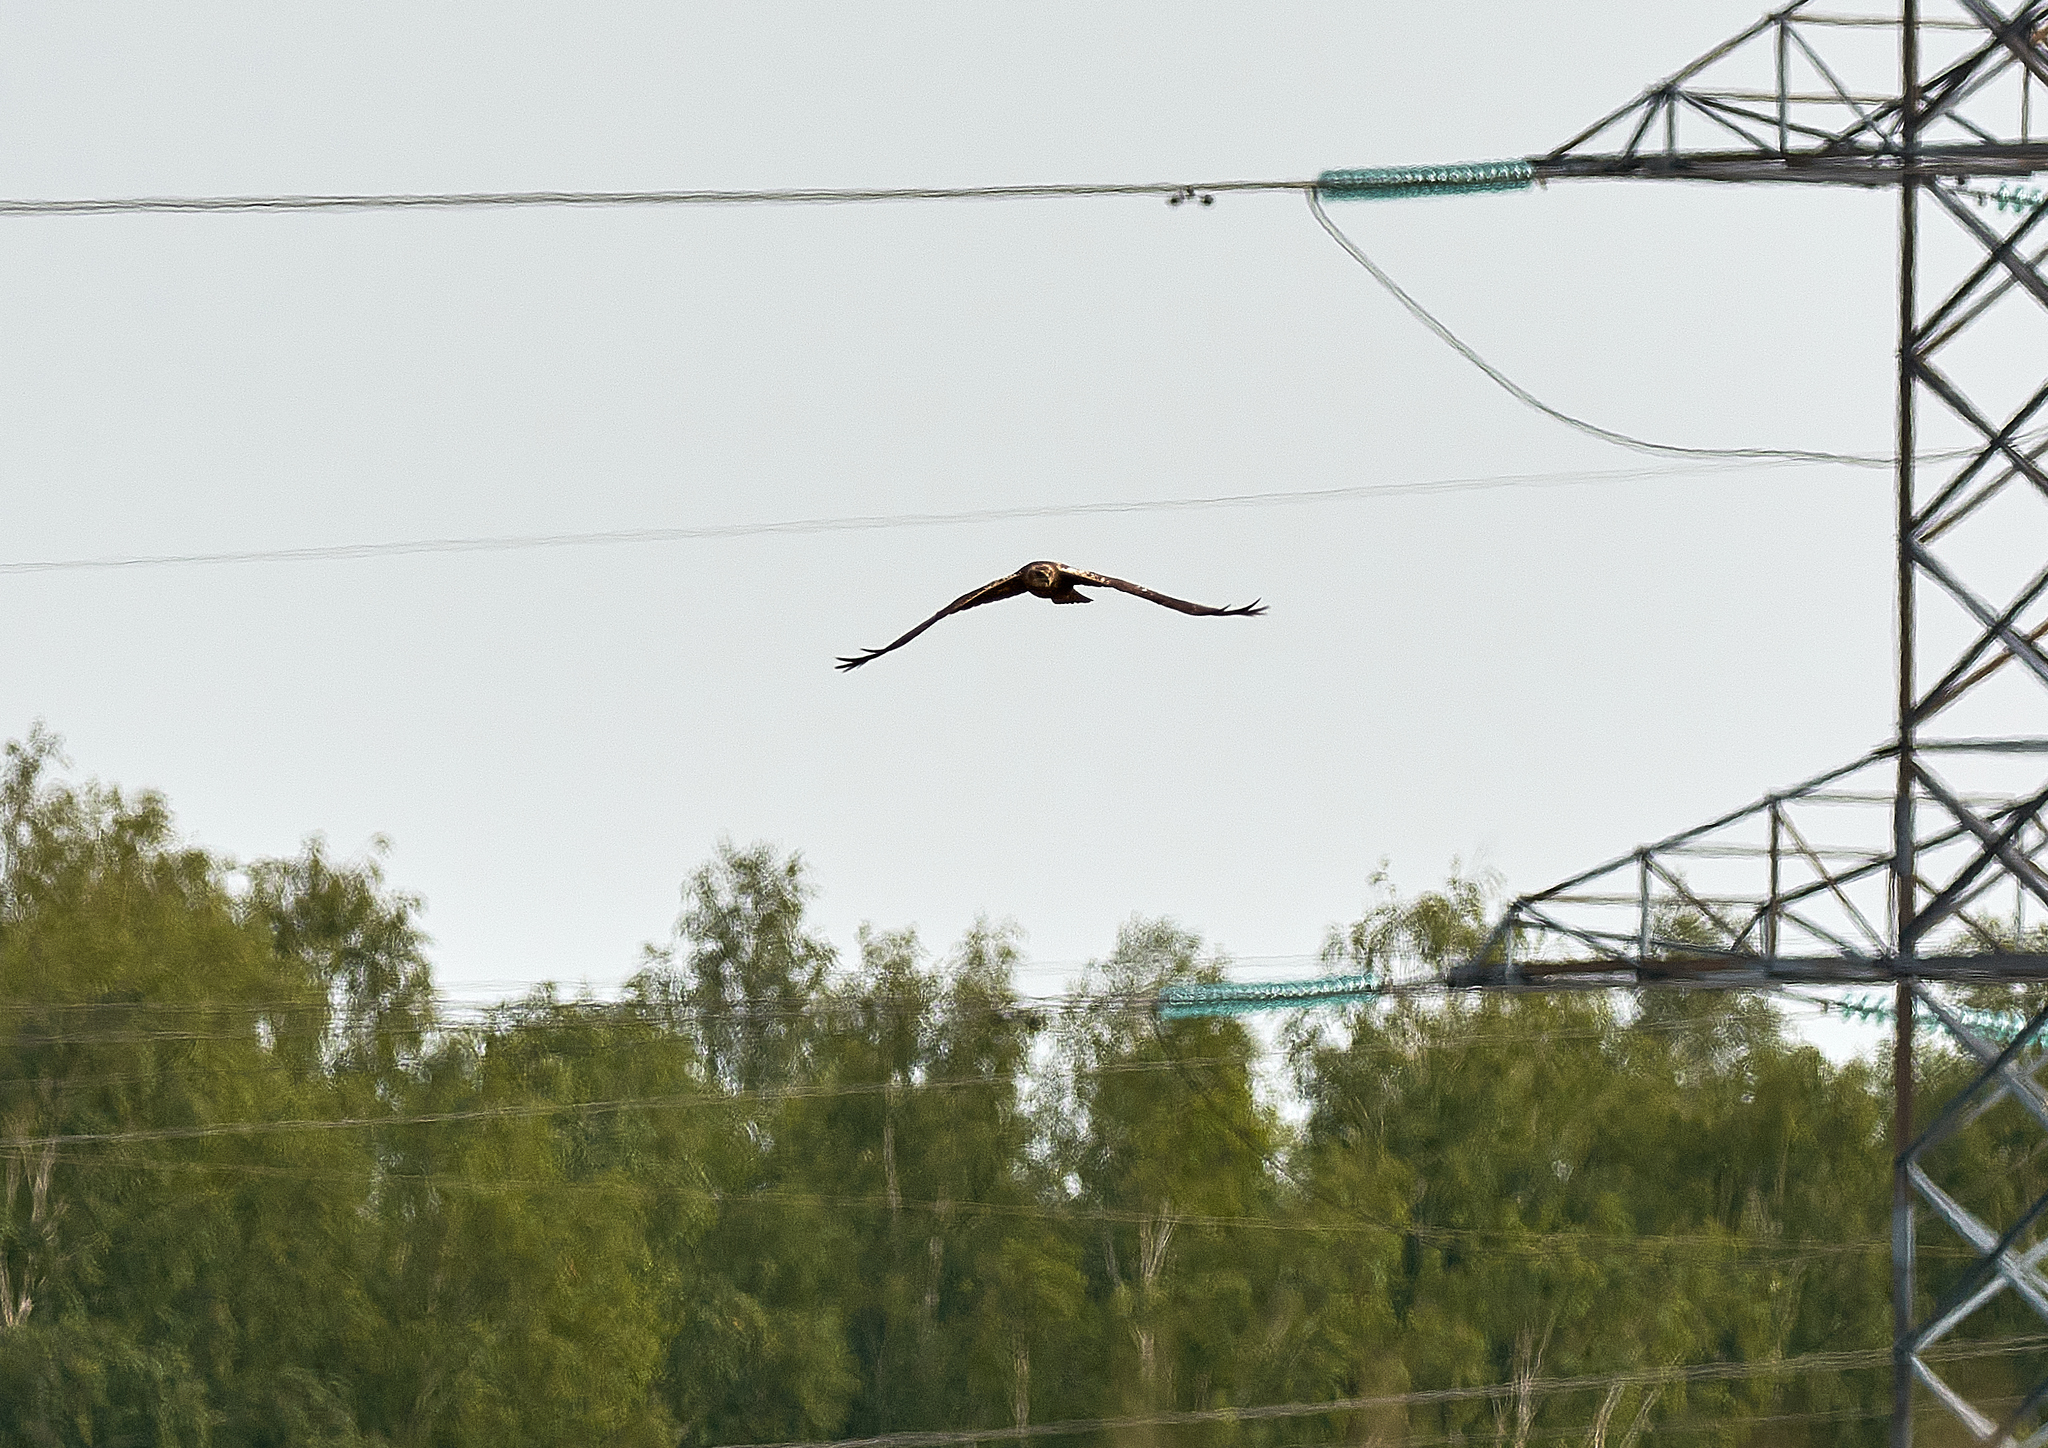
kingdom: Animalia
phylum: Chordata
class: Aves
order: Accipitriformes
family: Accipitridae
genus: Circus
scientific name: Circus aeruginosus
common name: Western marsh harrier
